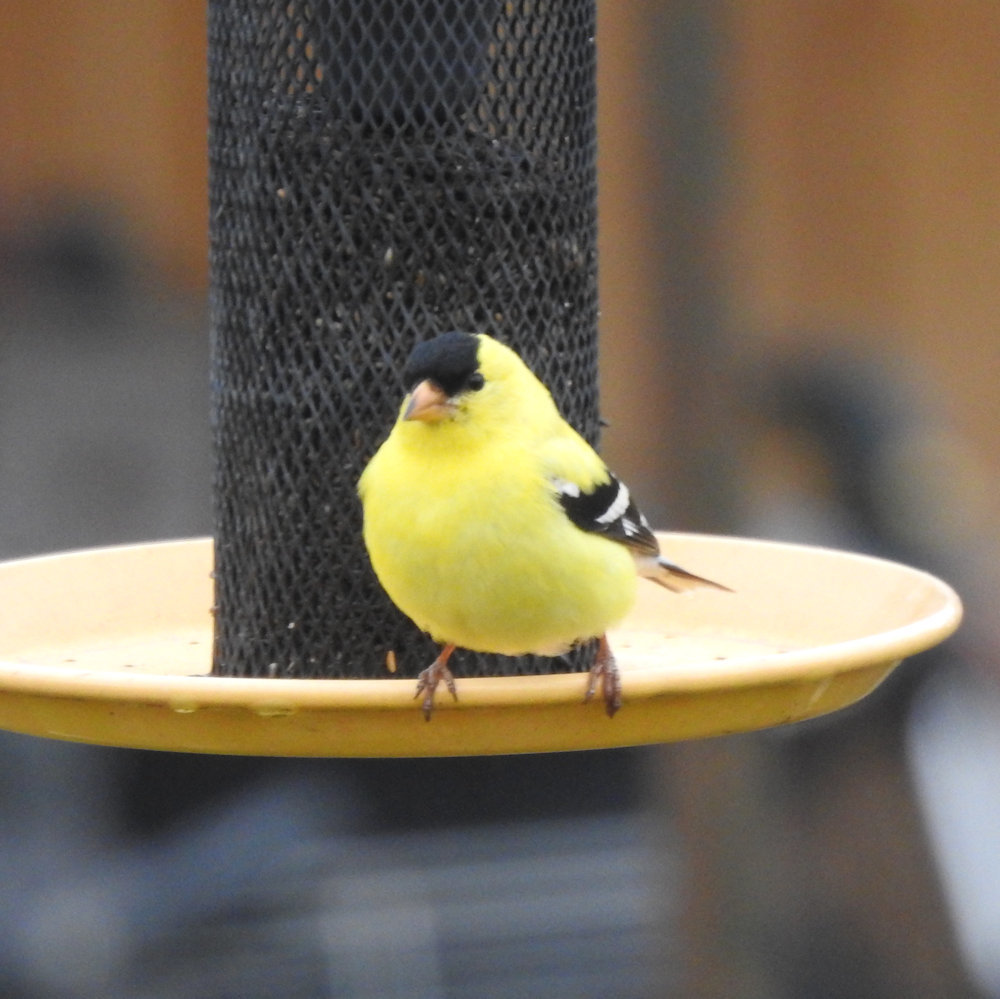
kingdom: Animalia
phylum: Chordata
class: Aves
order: Passeriformes
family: Fringillidae
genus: Spinus
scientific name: Spinus tristis
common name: American goldfinch
